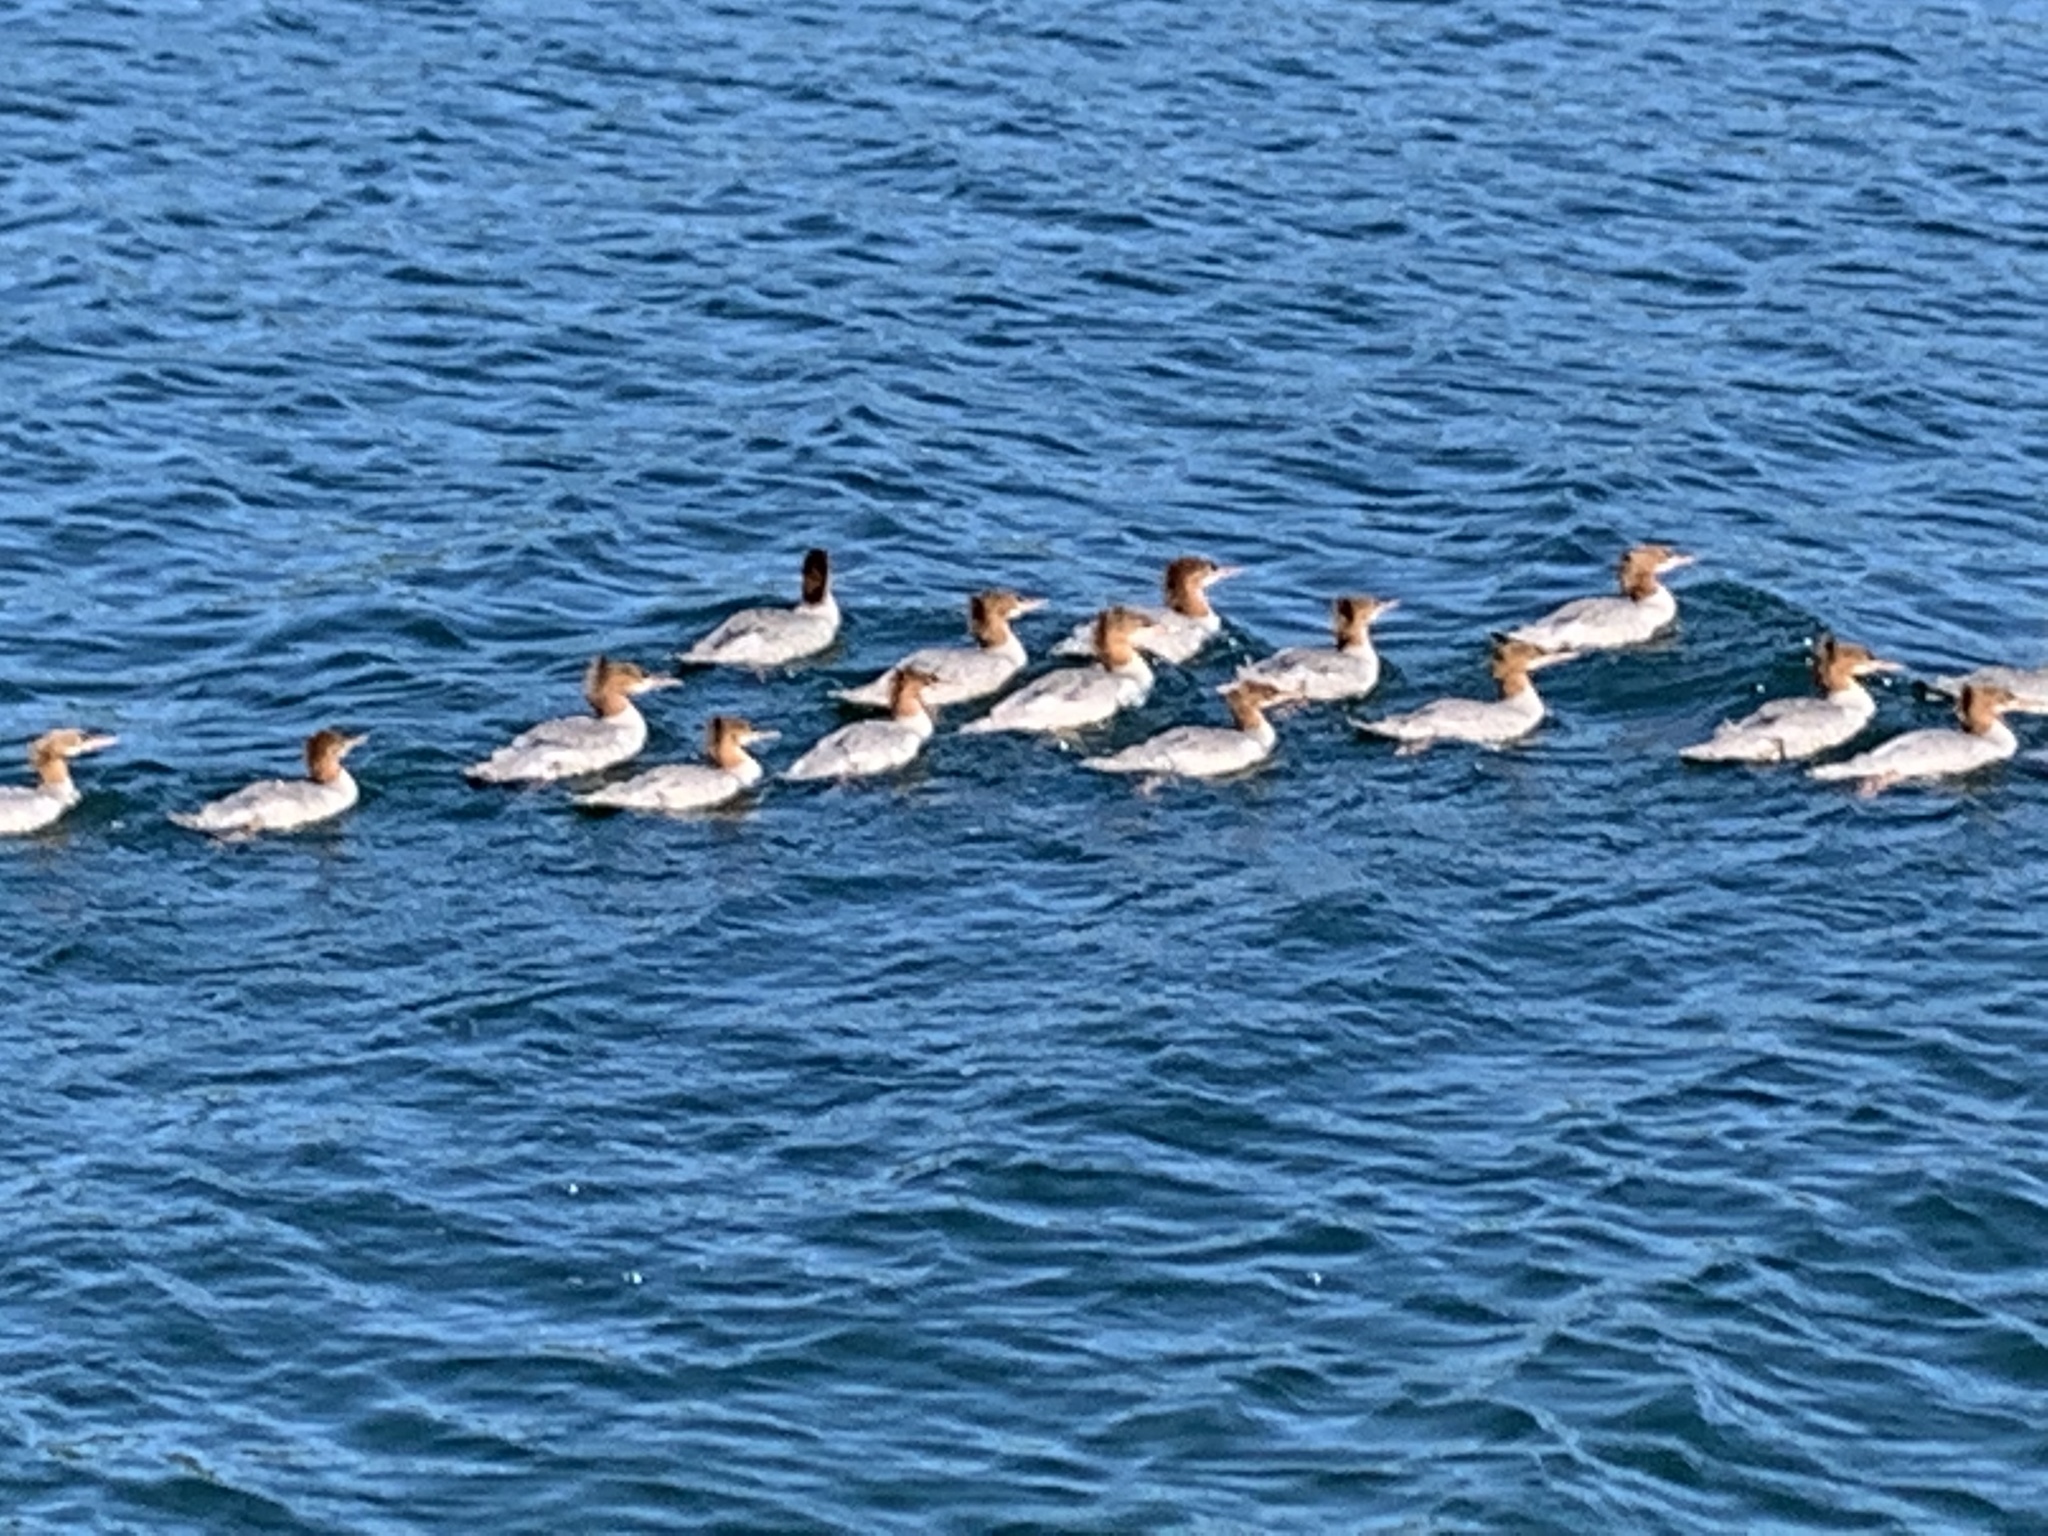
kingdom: Animalia
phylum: Chordata
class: Aves
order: Anseriformes
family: Anatidae
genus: Mergus
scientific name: Mergus merganser
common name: Common merganser
